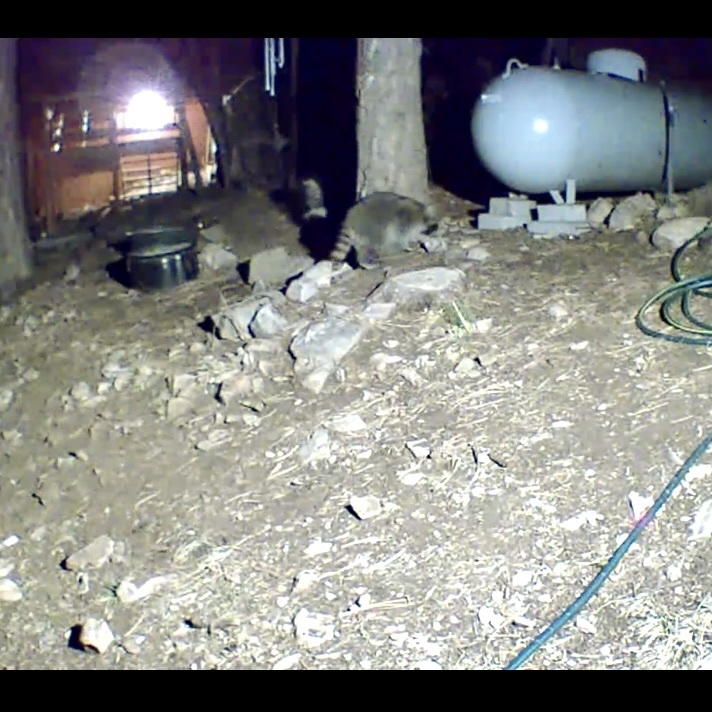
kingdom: Animalia
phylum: Chordata
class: Mammalia
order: Carnivora
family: Procyonidae
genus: Procyon
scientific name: Procyon lotor
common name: Raccoon
